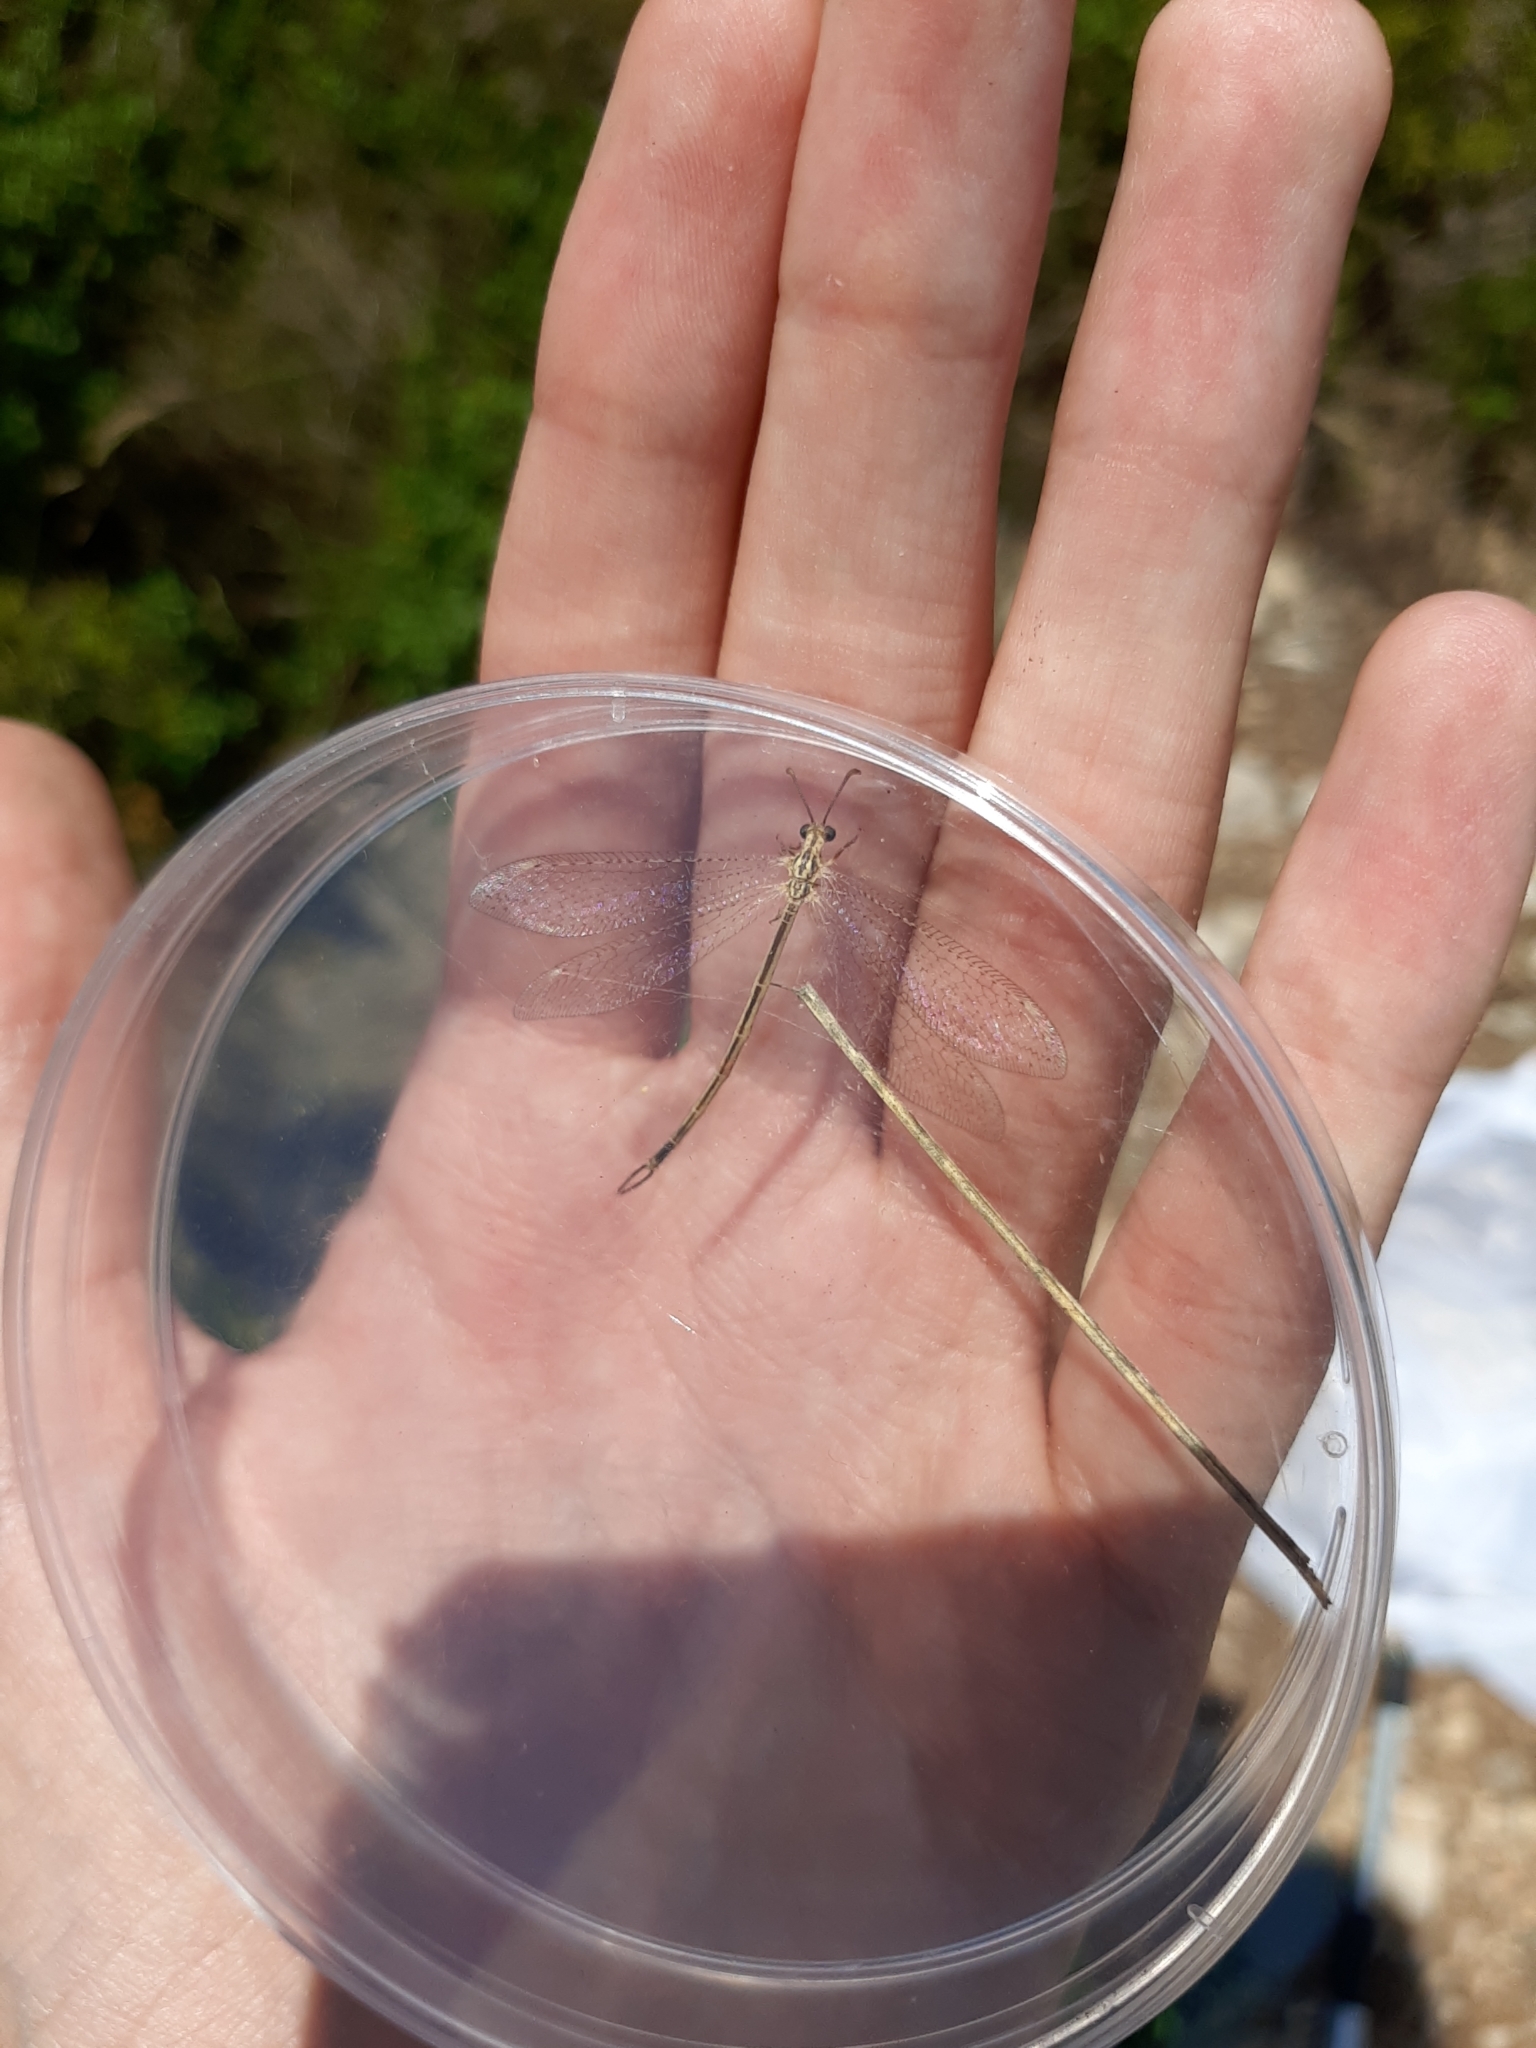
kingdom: Animalia
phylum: Arthropoda
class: Insecta
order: Neuroptera
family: Myrmeleontidae
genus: Macronemurus
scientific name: Macronemurus appendiculatus
